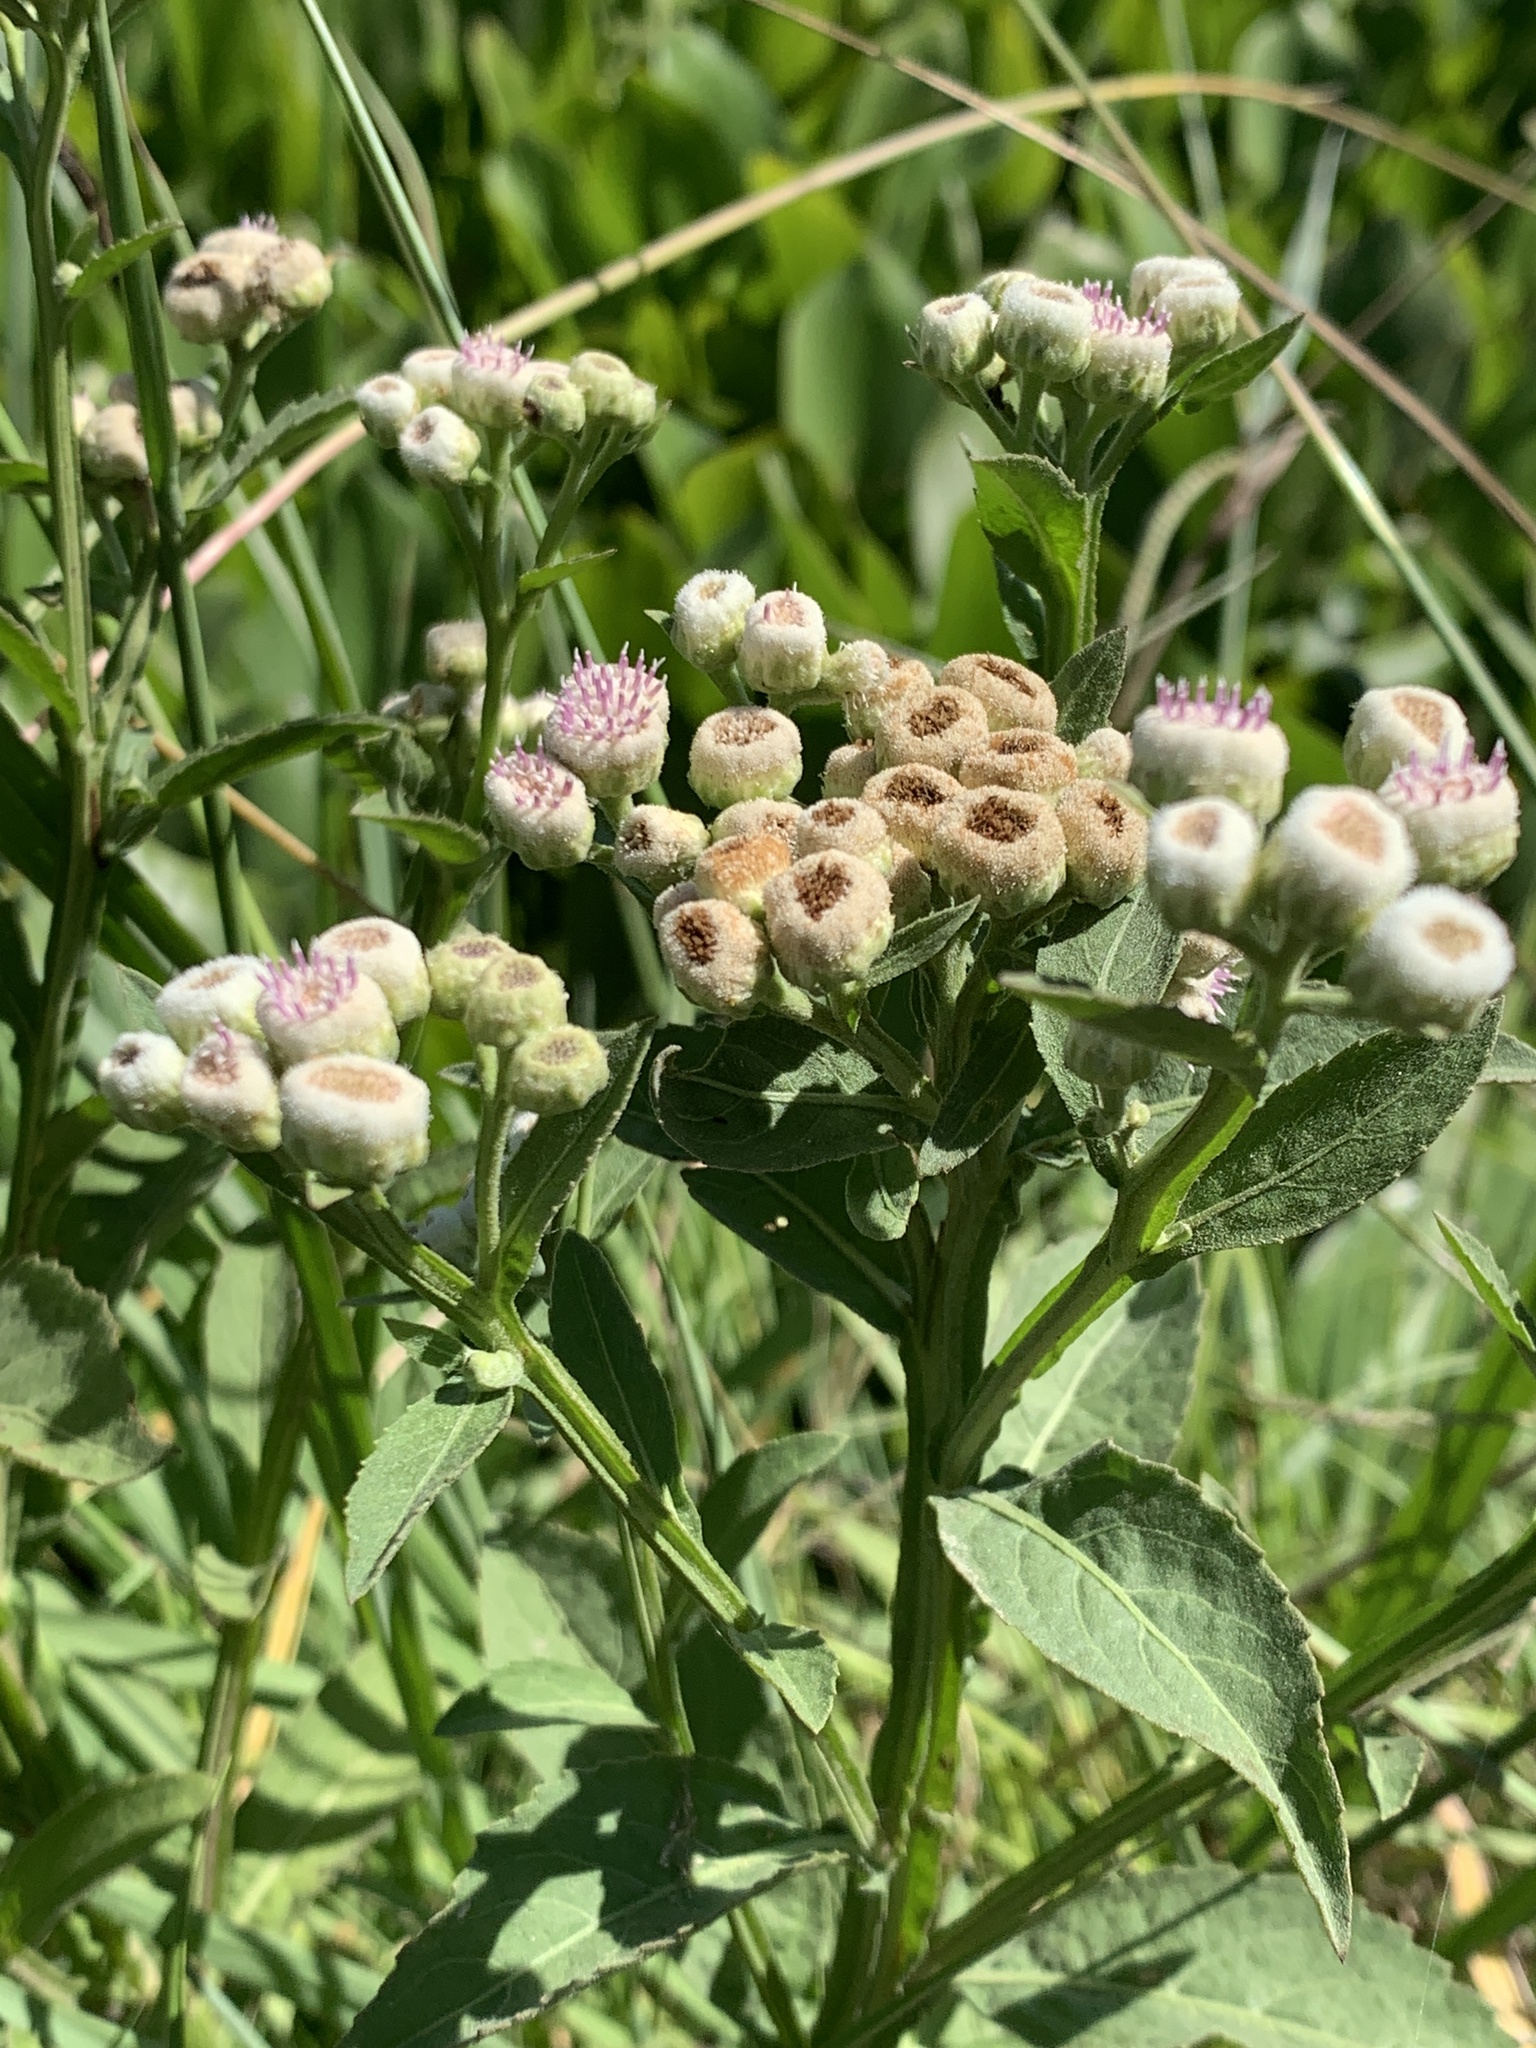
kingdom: Plantae
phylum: Tracheophyta
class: Magnoliopsida
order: Asterales
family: Asteraceae
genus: Pluchea
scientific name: Pluchea sagittalis
